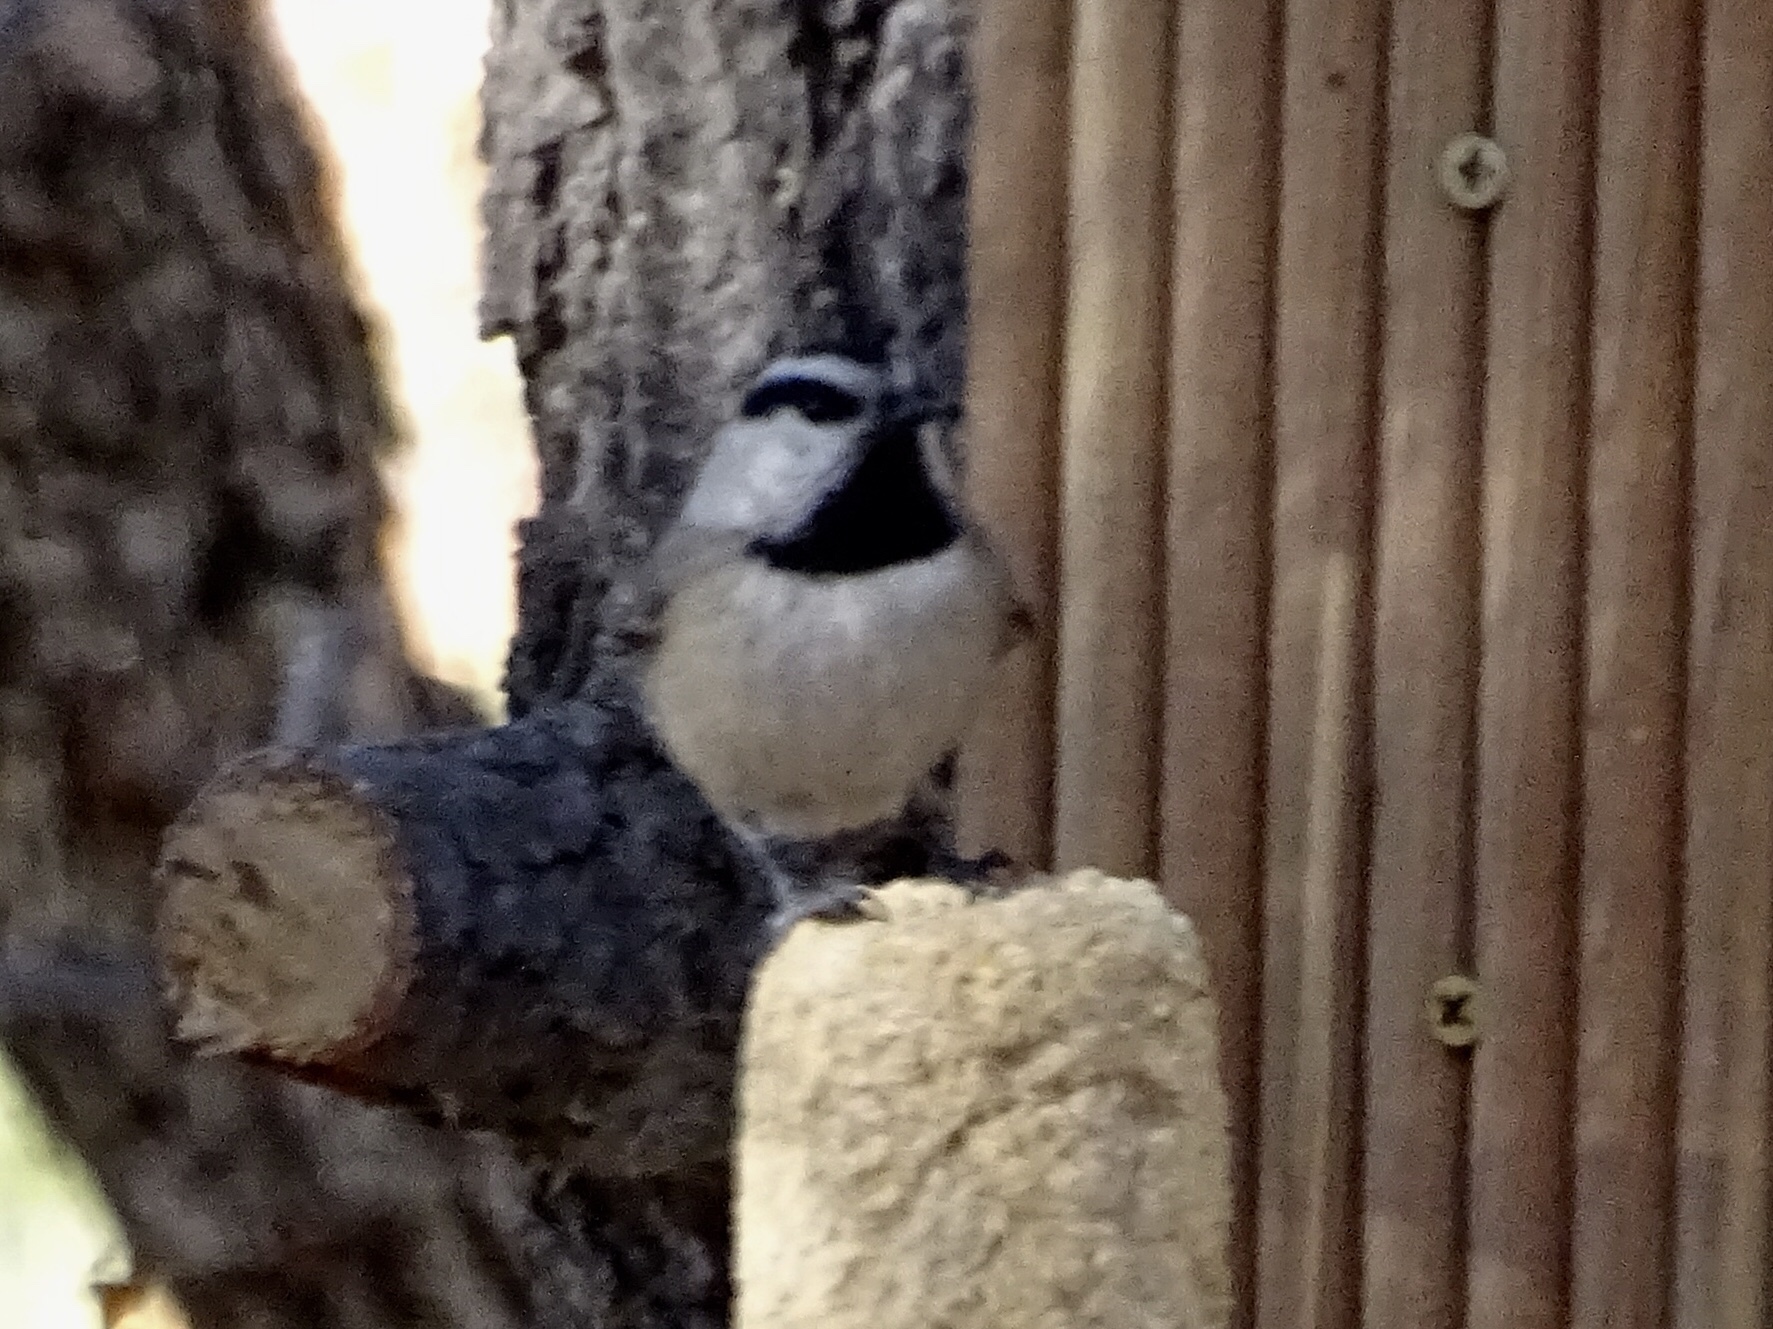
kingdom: Animalia
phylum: Chordata
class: Aves
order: Passeriformes
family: Paridae
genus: Poecile
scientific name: Poecile gambeli
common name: Mountain chickadee
